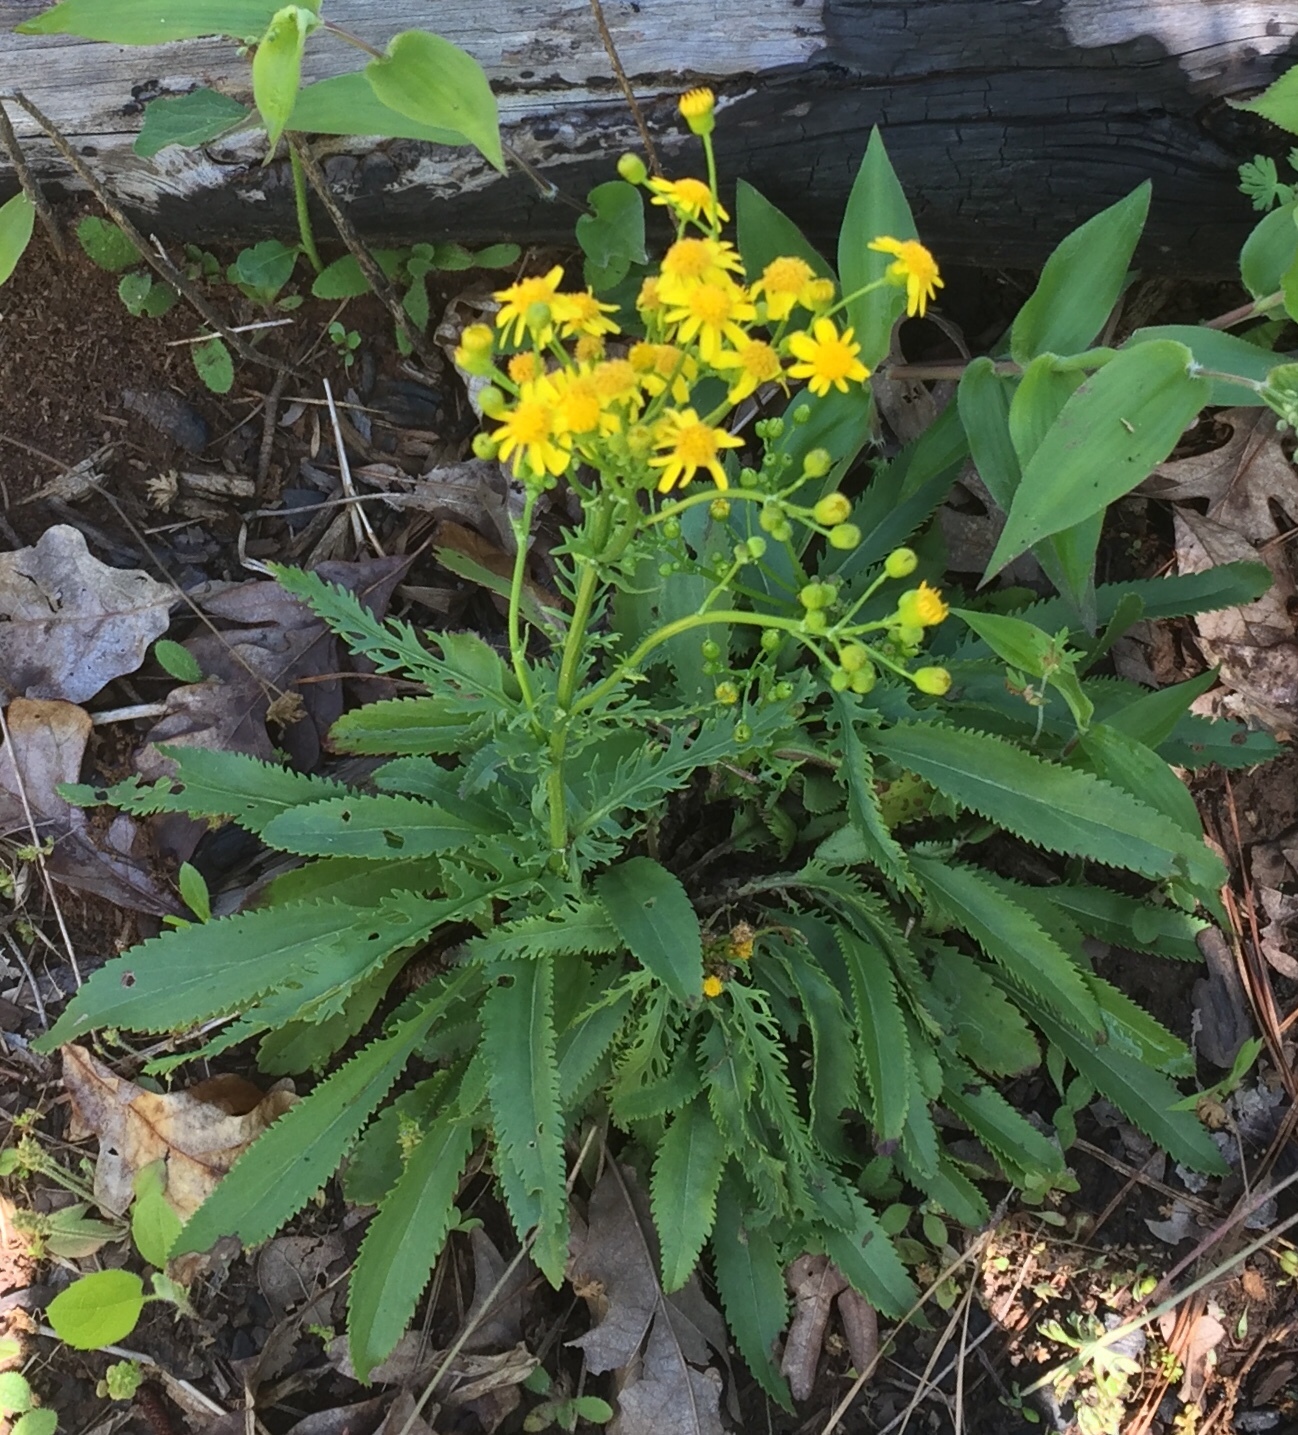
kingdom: Plantae
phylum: Tracheophyta
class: Magnoliopsida
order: Asterales
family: Asteraceae
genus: Packera
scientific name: Packera anonyma
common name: Small ragwort
